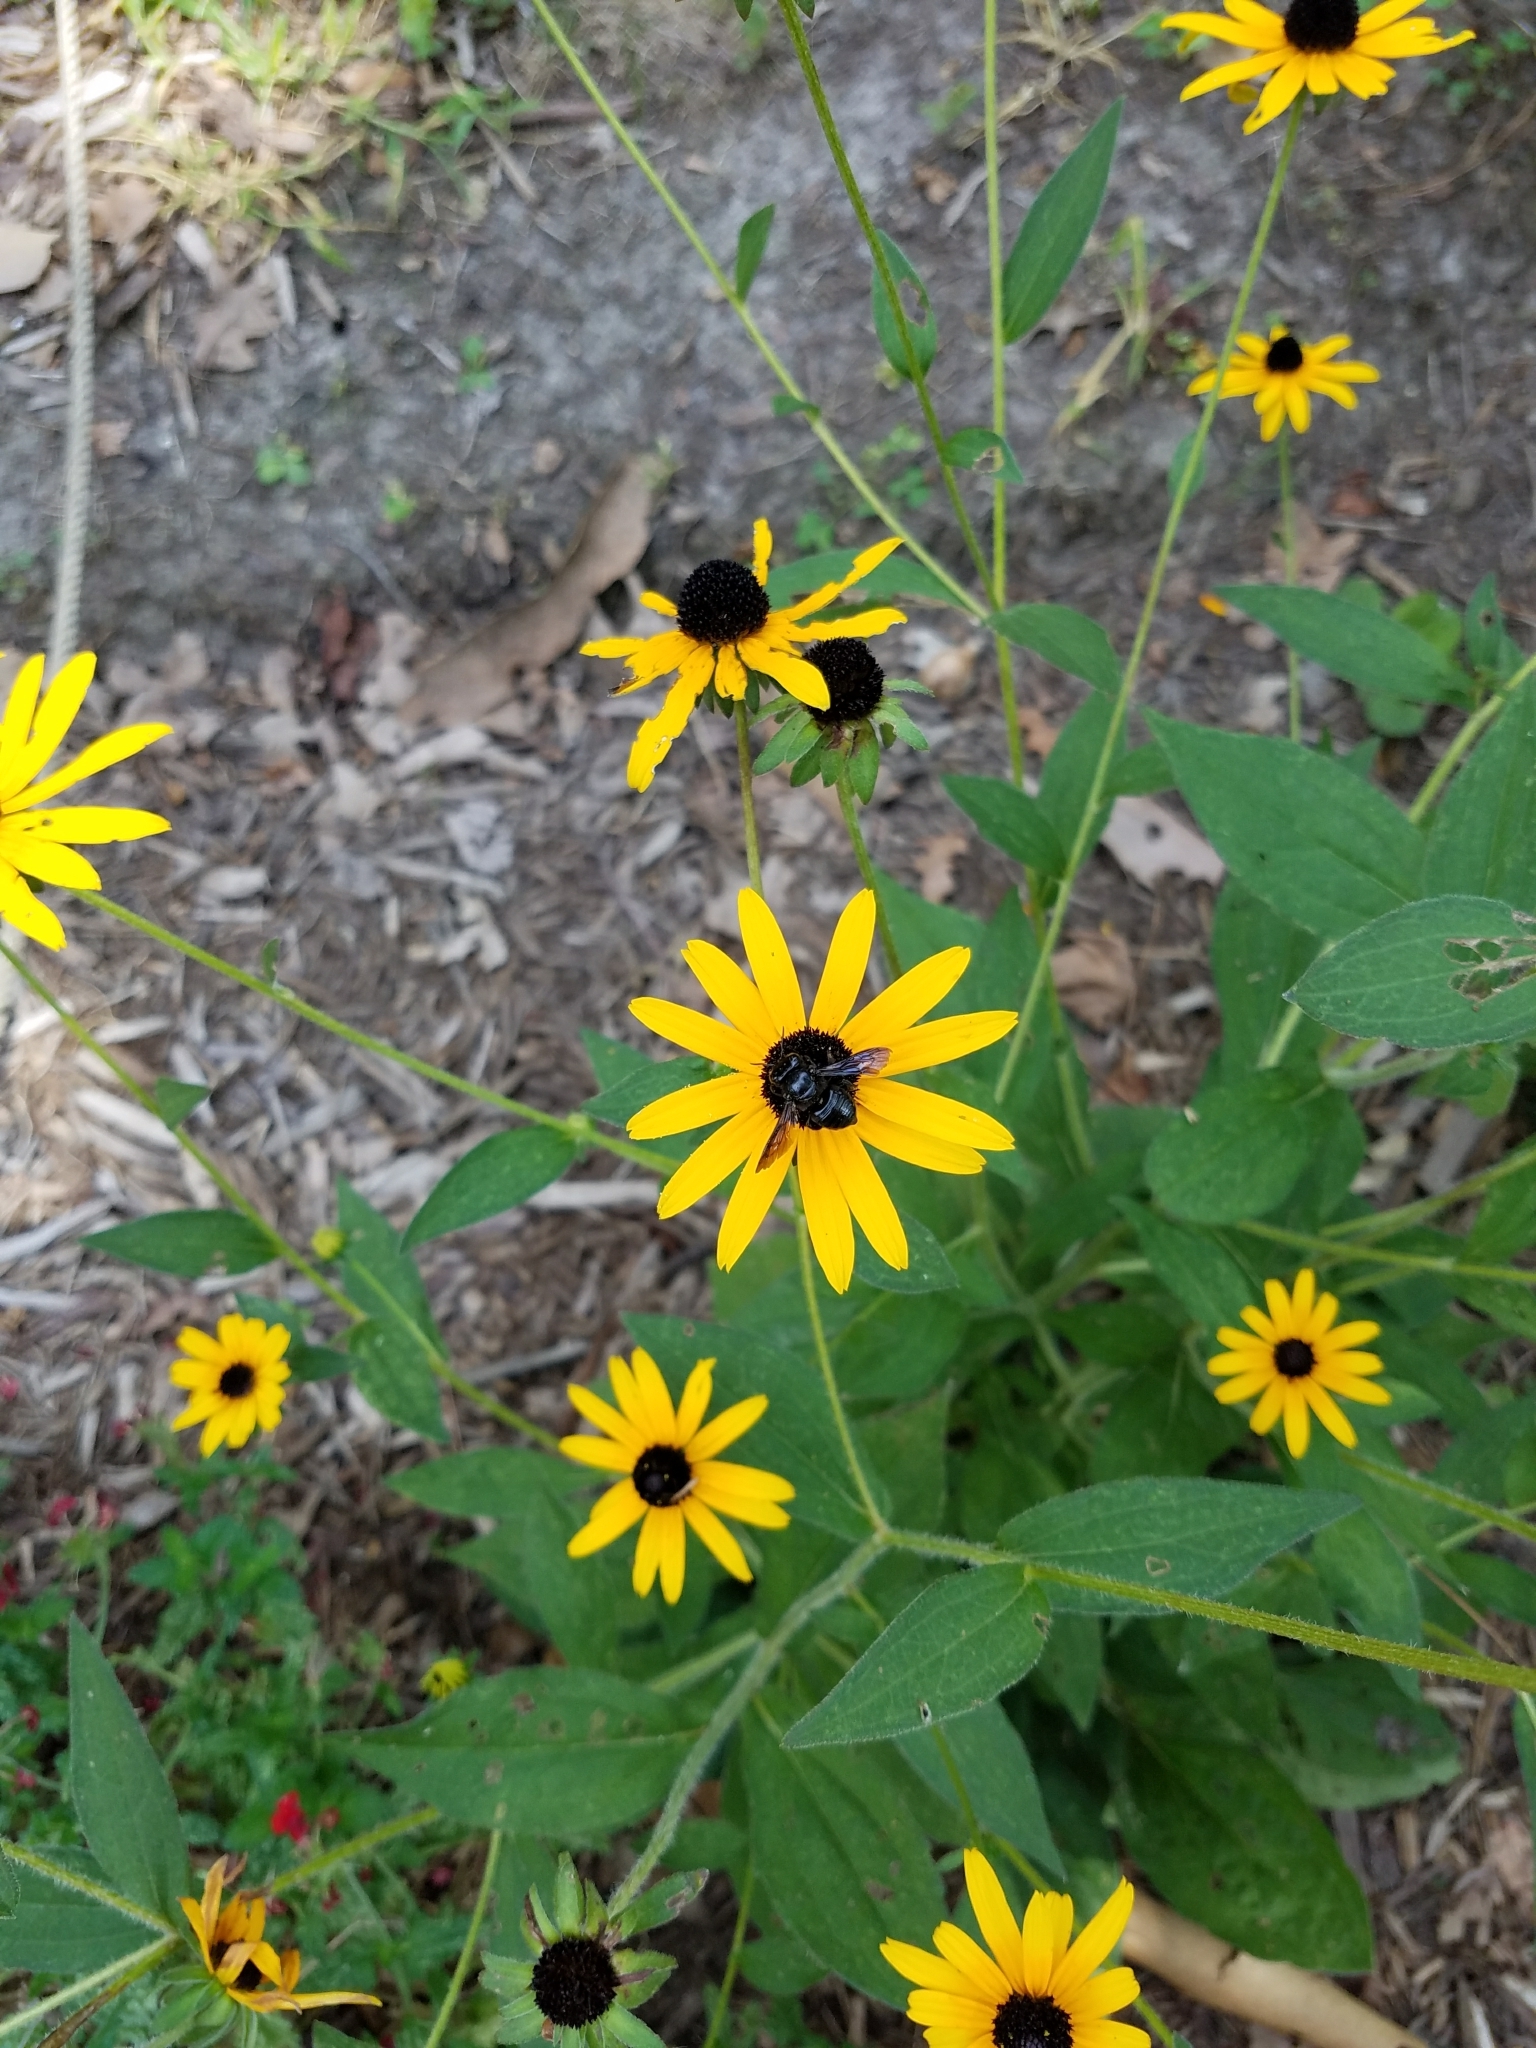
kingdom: Animalia
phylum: Arthropoda
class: Insecta
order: Hymenoptera
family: Megachilidae
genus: Megachile
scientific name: Megachile xylocopoides
